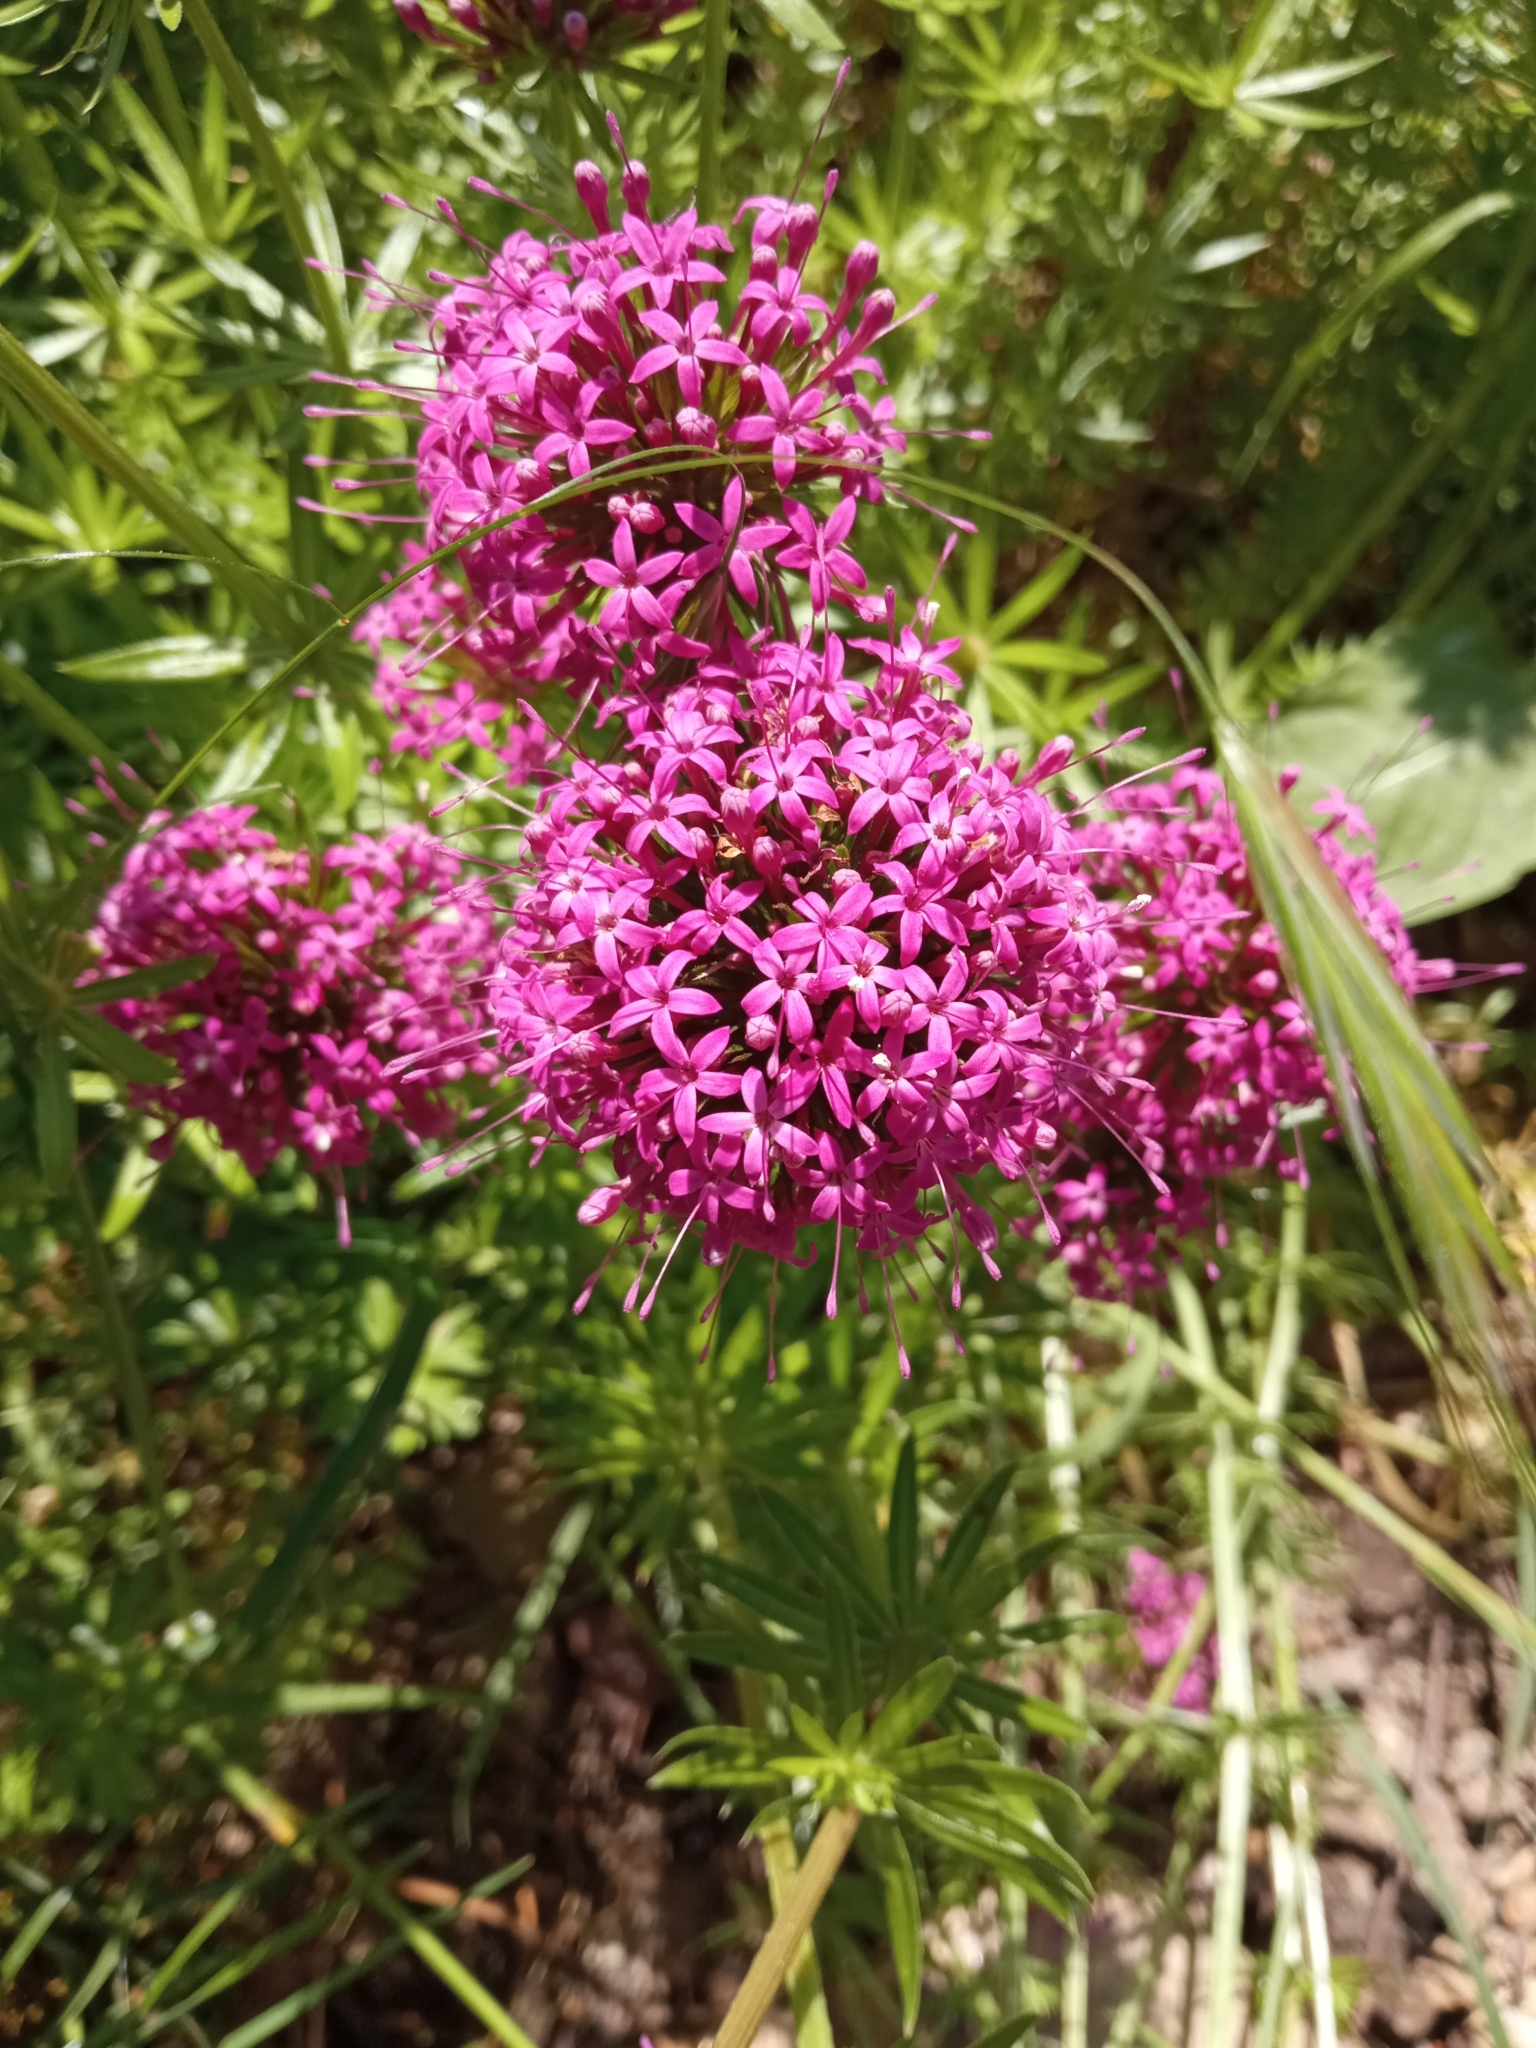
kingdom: Plantae
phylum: Tracheophyta
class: Magnoliopsida
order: Dipsacales
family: Caprifoliaceae
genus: Centranthus
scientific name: Centranthus ruber
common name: Red valerian
